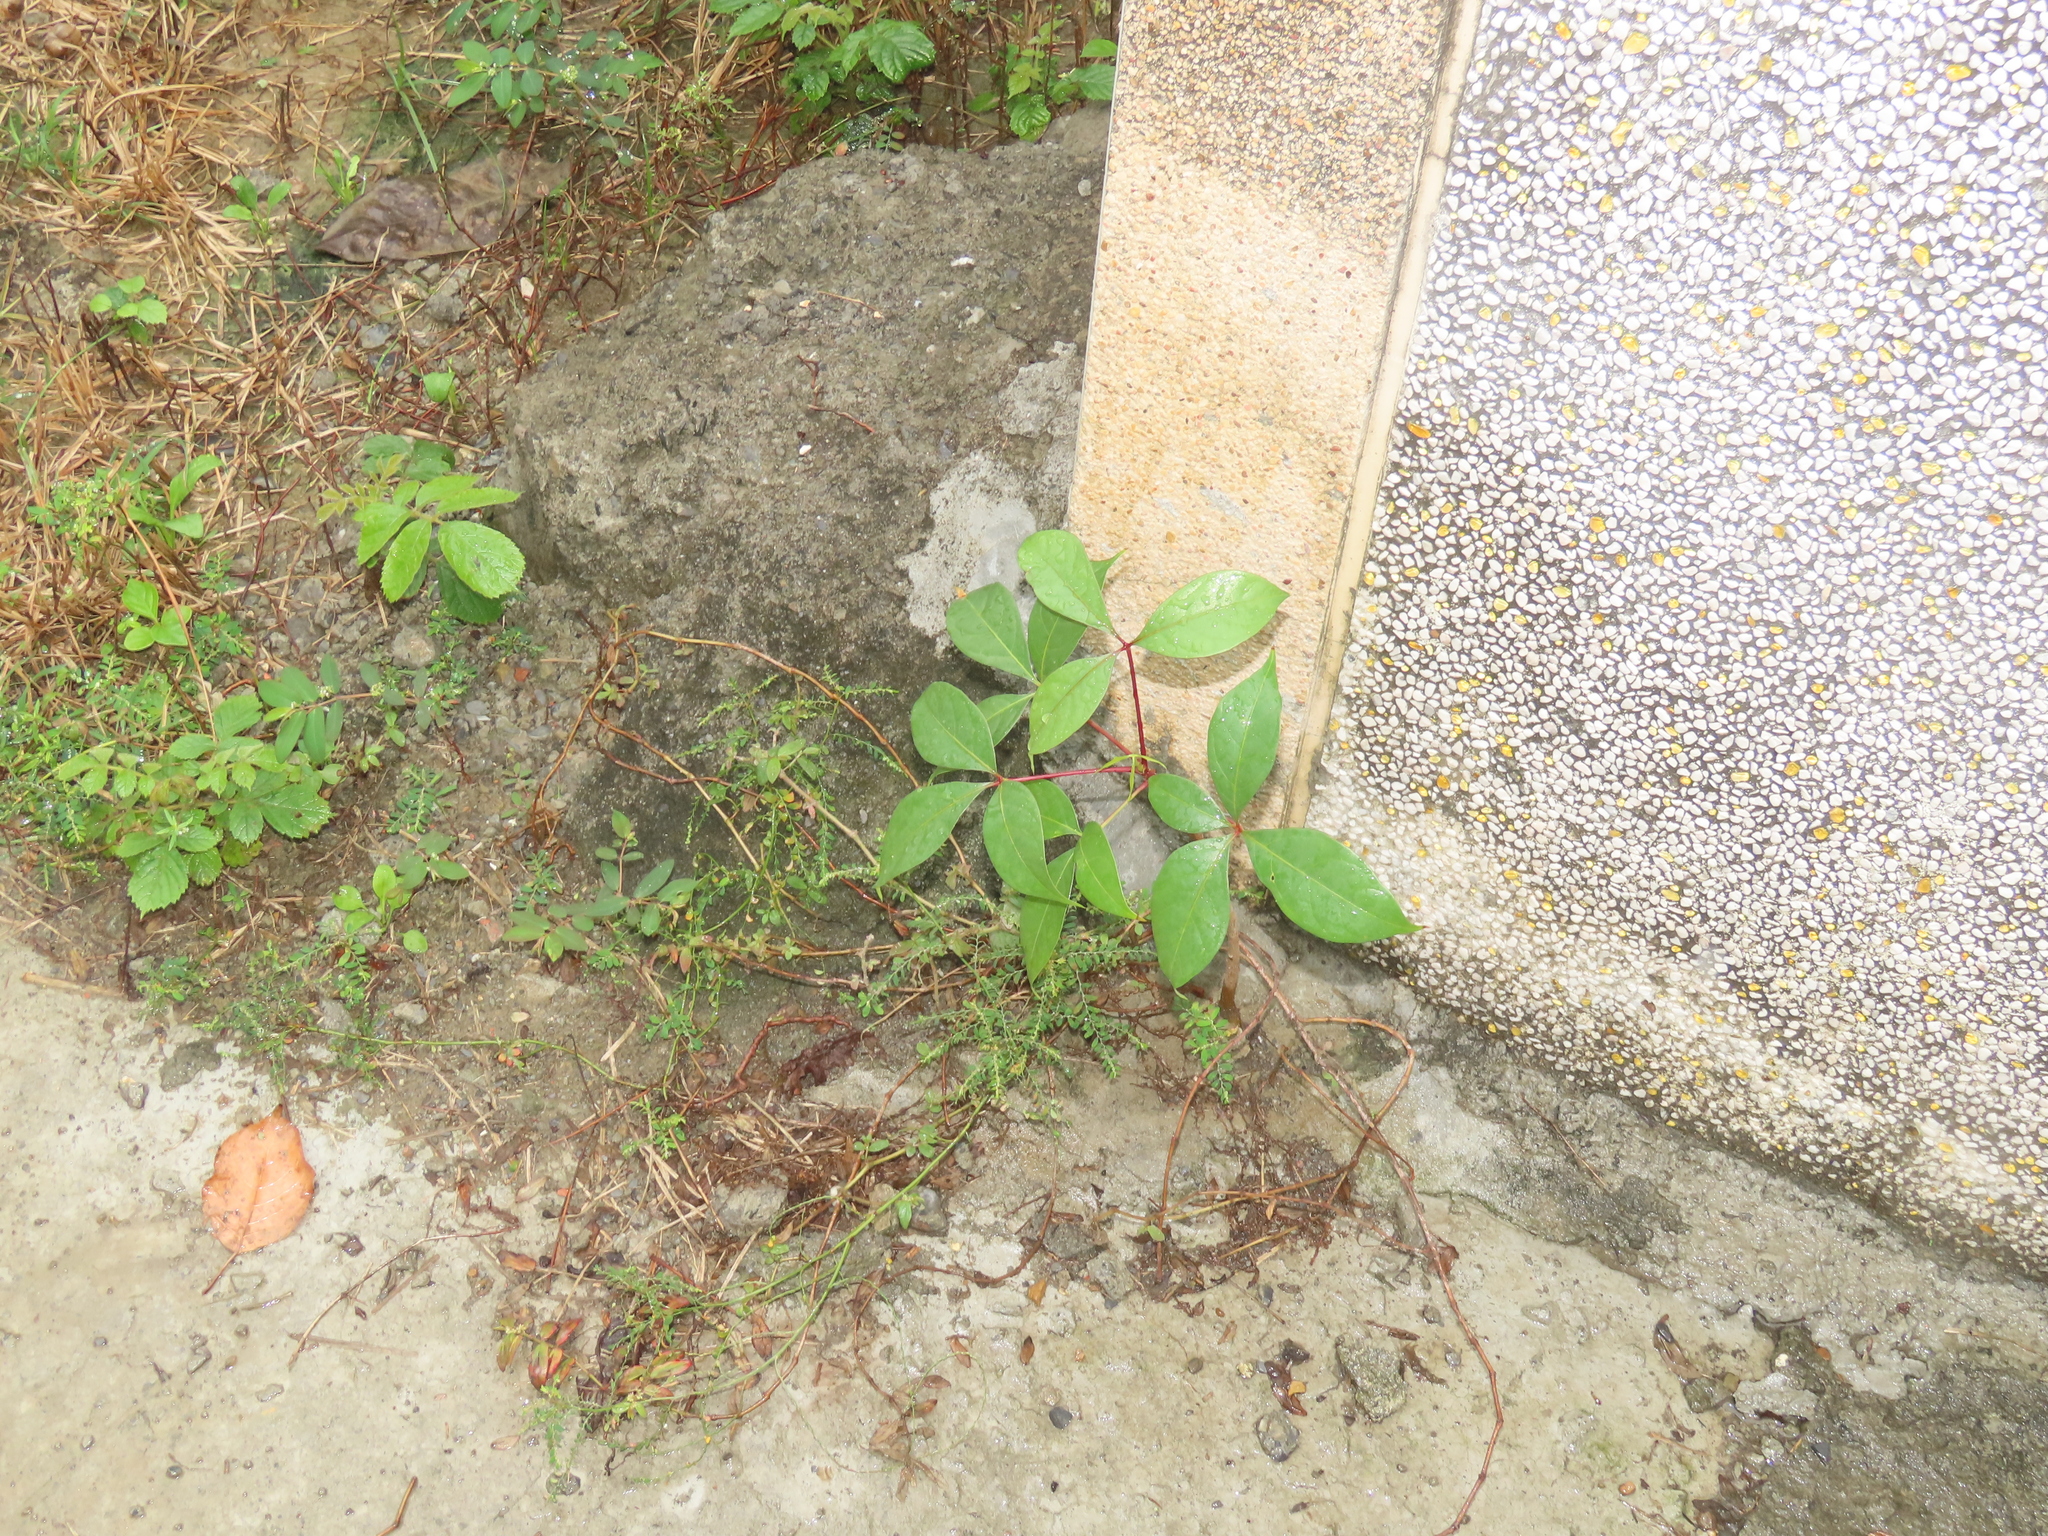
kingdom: Plantae
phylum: Tracheophyta
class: Magnoliopsida
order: Malpighiales
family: Euphorbiaceae
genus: Manihot
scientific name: Manihot esculenta
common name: Cassava
